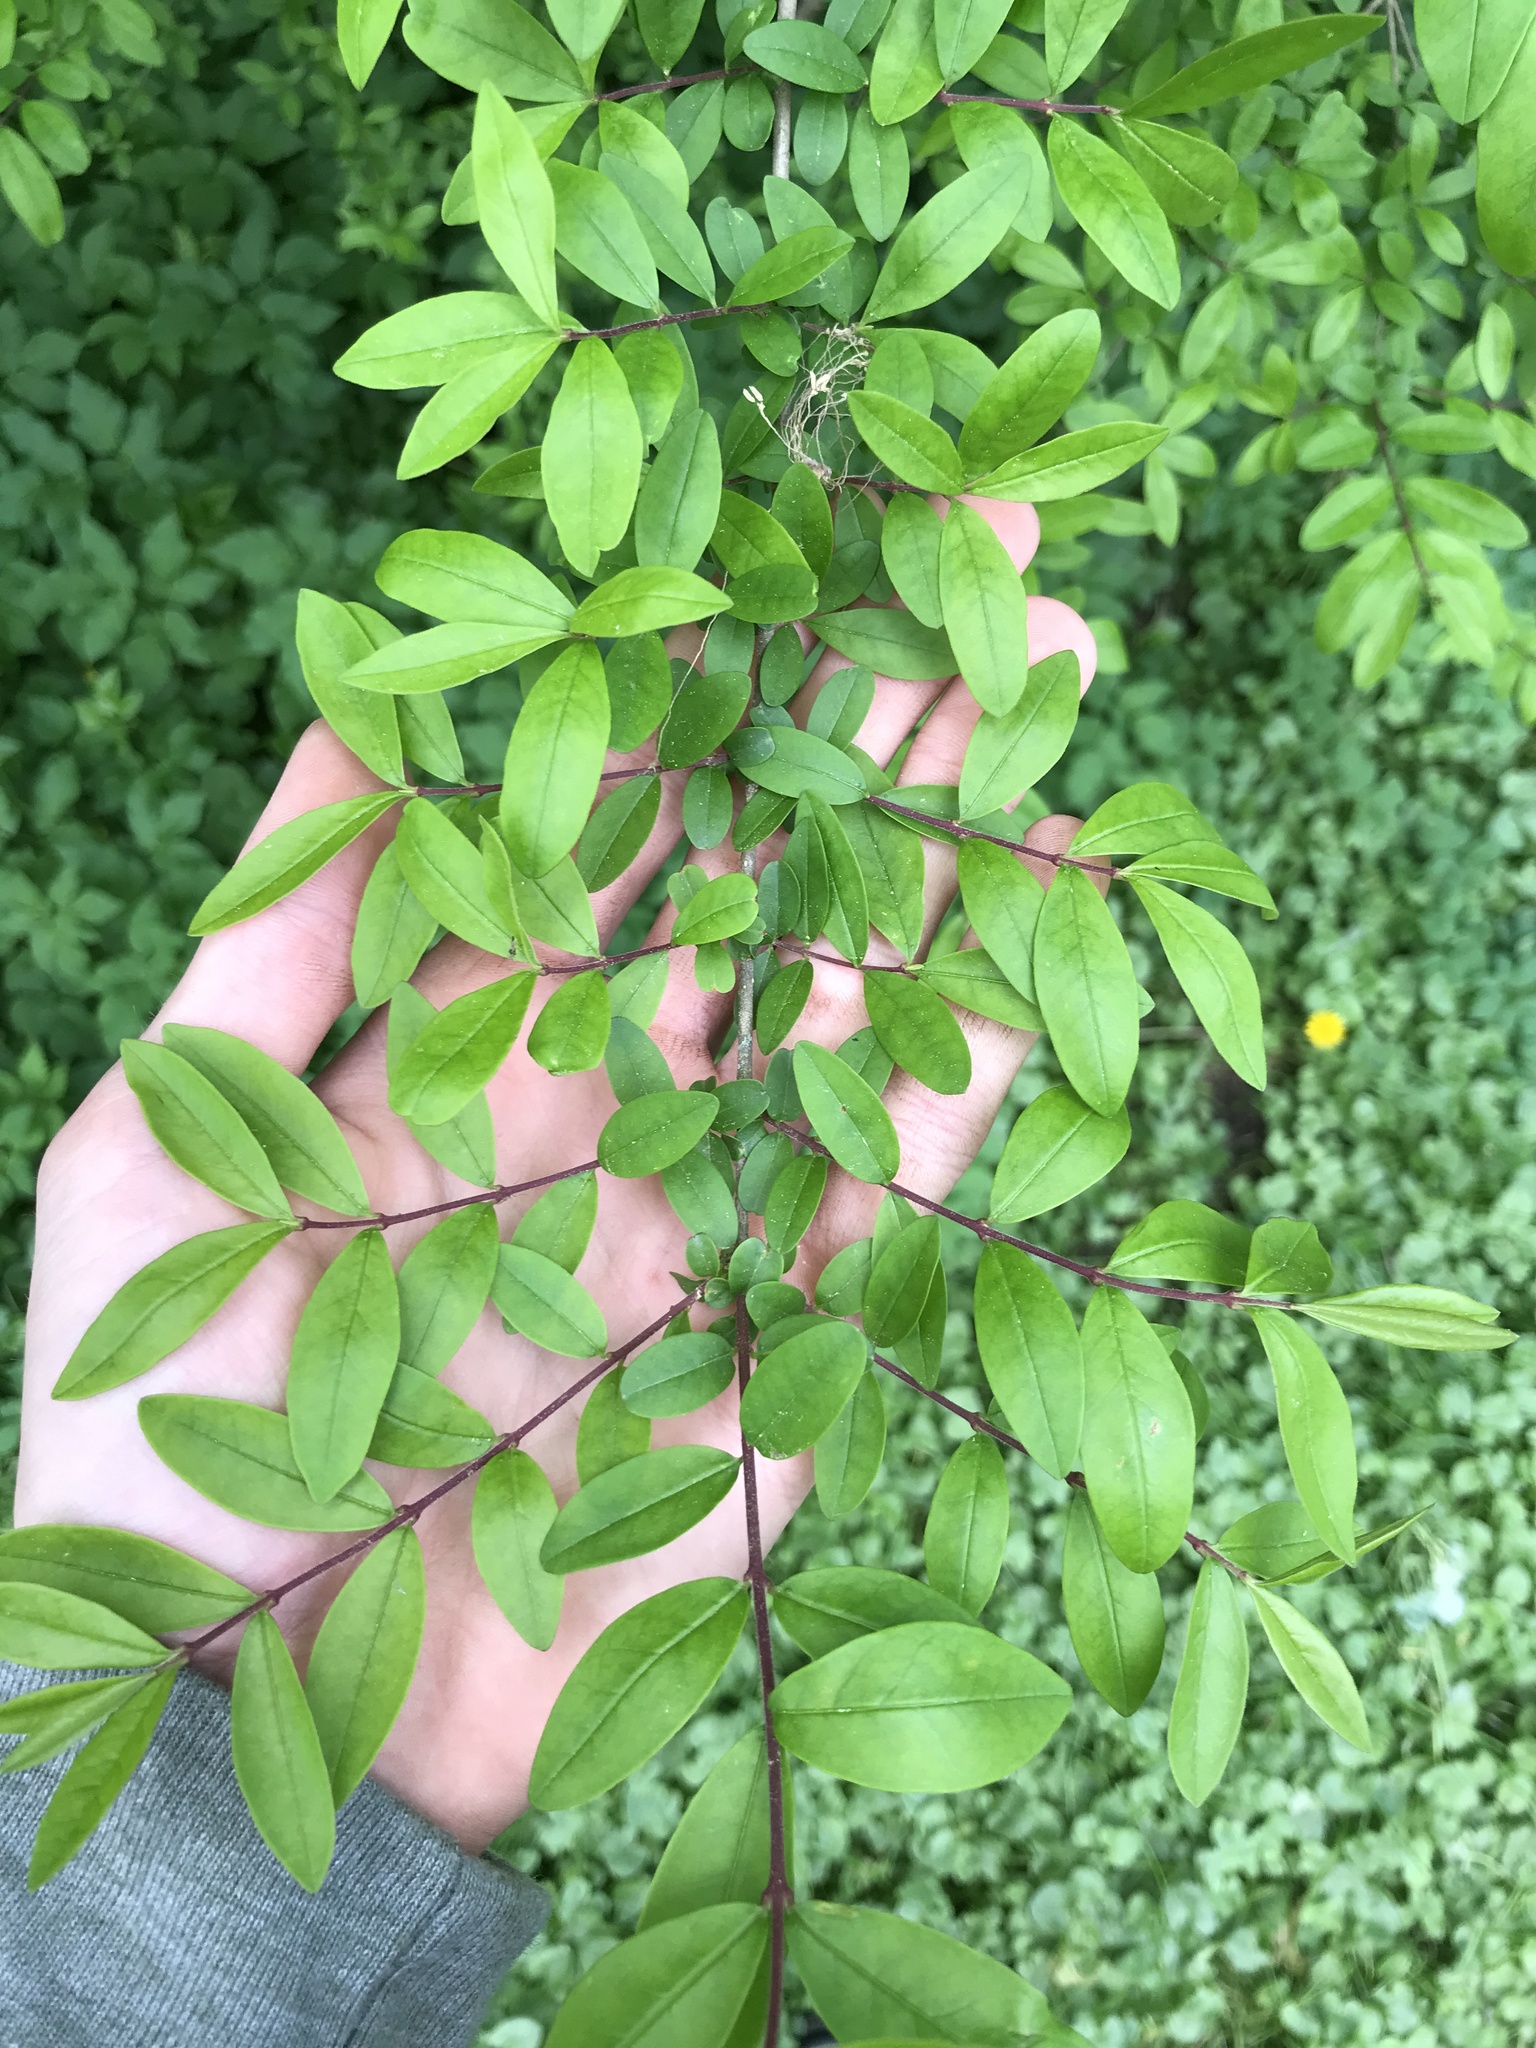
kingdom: Plantae
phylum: Tracheophyta
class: Magnoliopsida
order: Lamiales
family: Oleaceae
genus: Ligustrum
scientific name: Ligustrum obtusifolium
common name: Border privet
